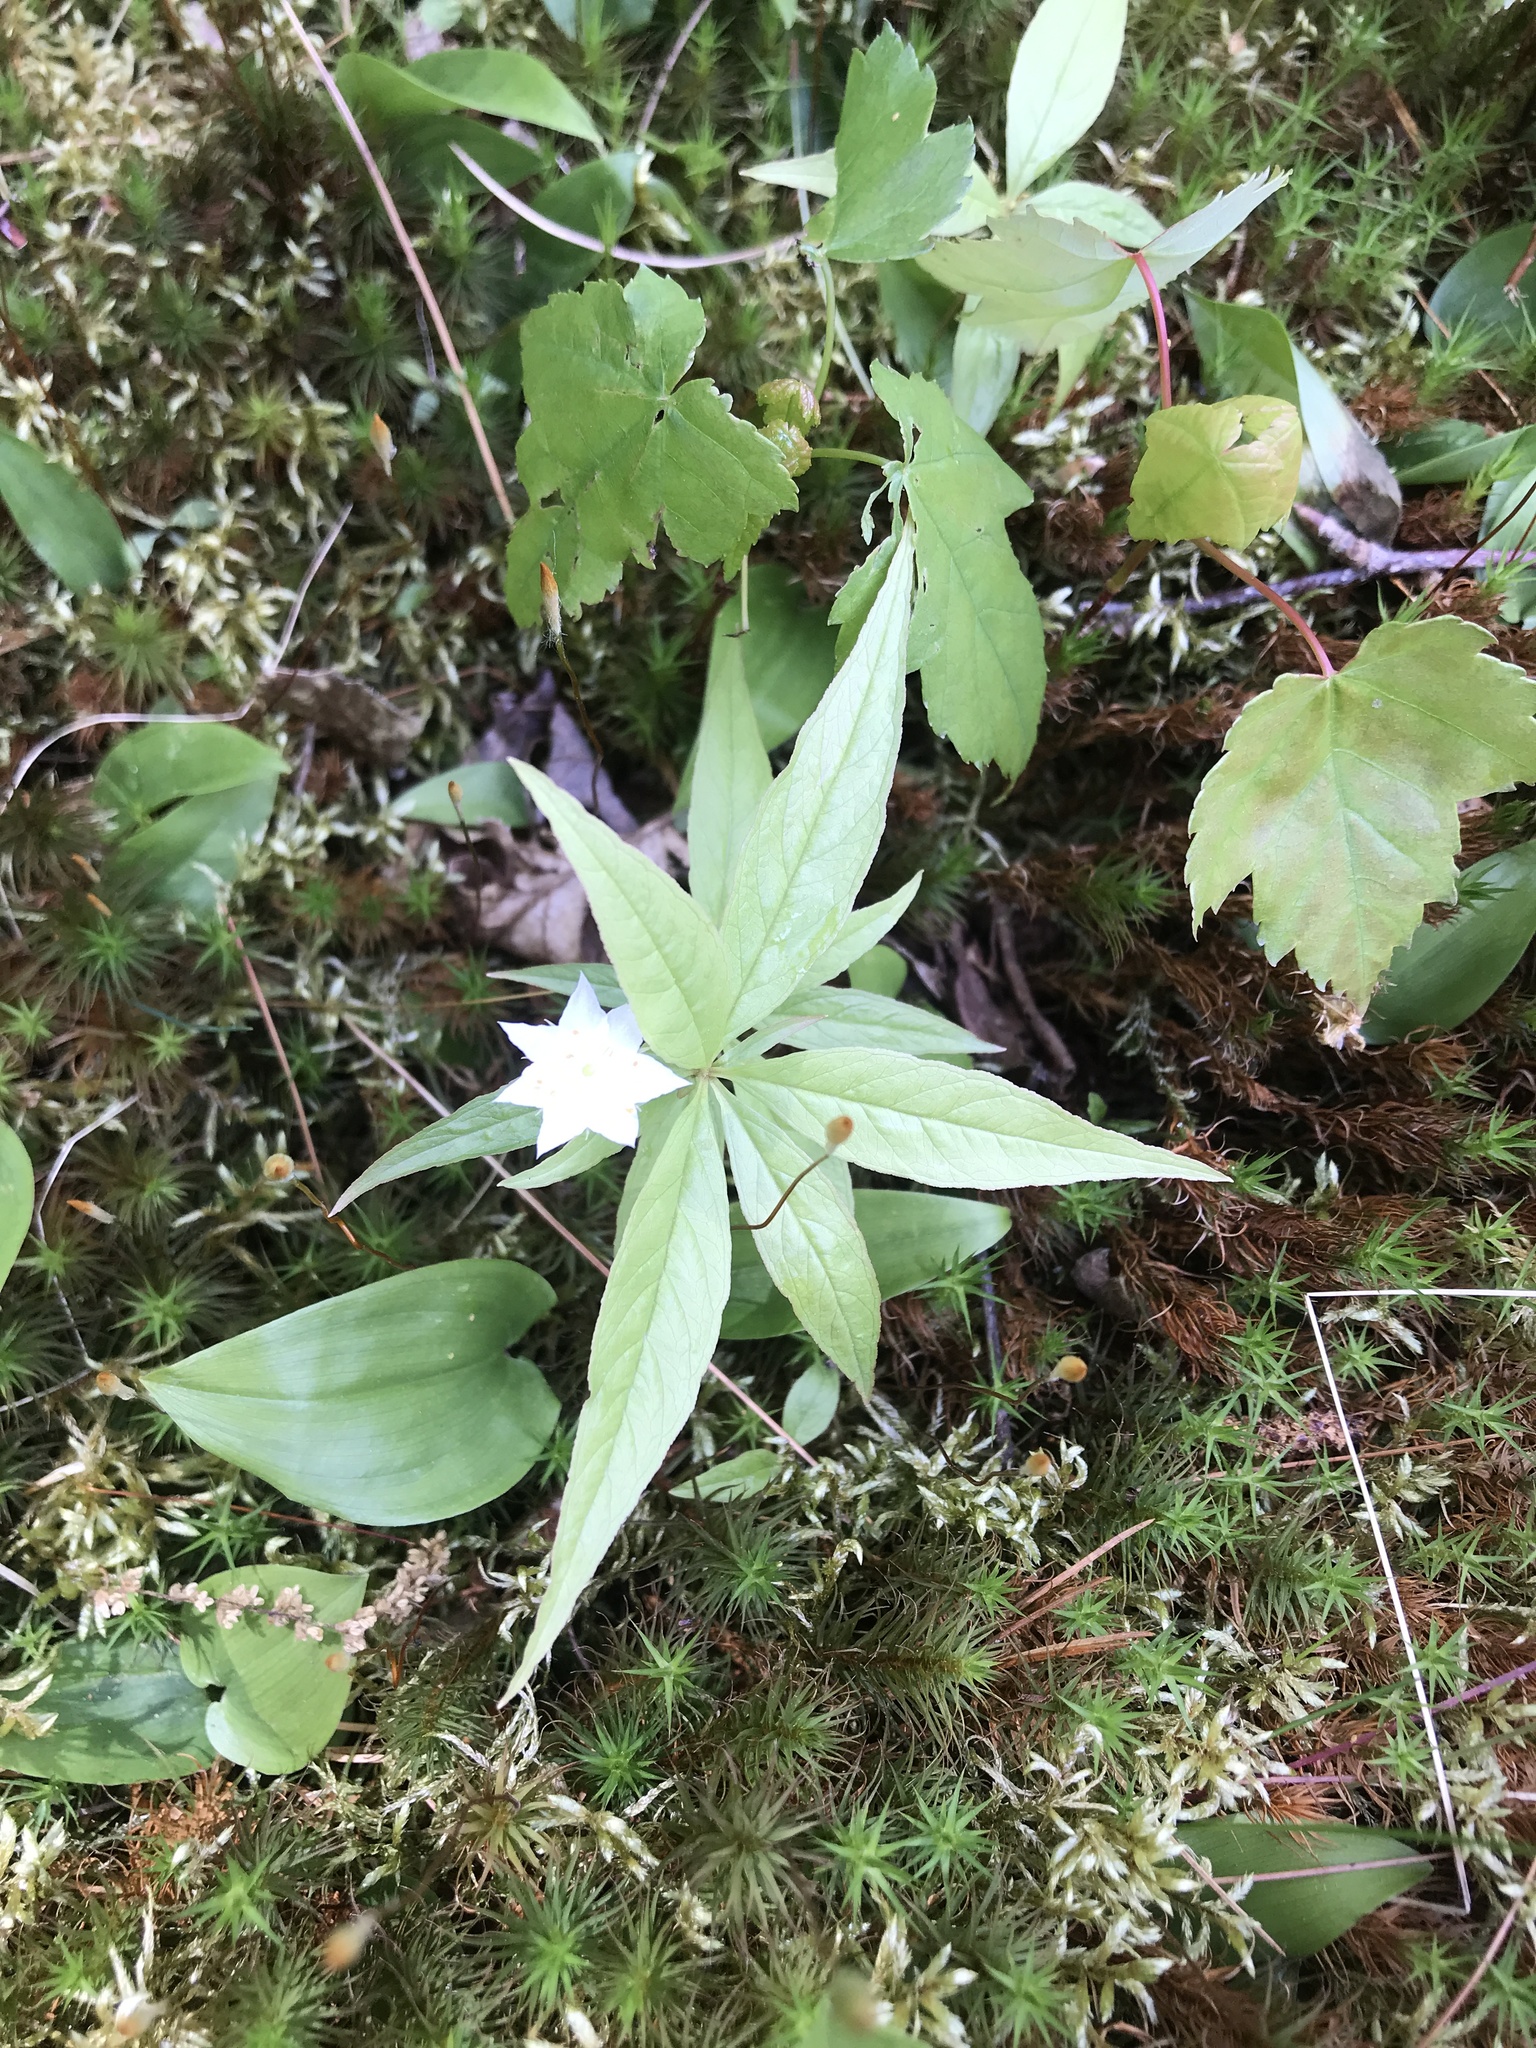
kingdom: Plantae
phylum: Tracheophyta
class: Magnoliopsida
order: Ericales
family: Primulaceae
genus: Lysimachia
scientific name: Lysimachia borealis
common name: American starflower
